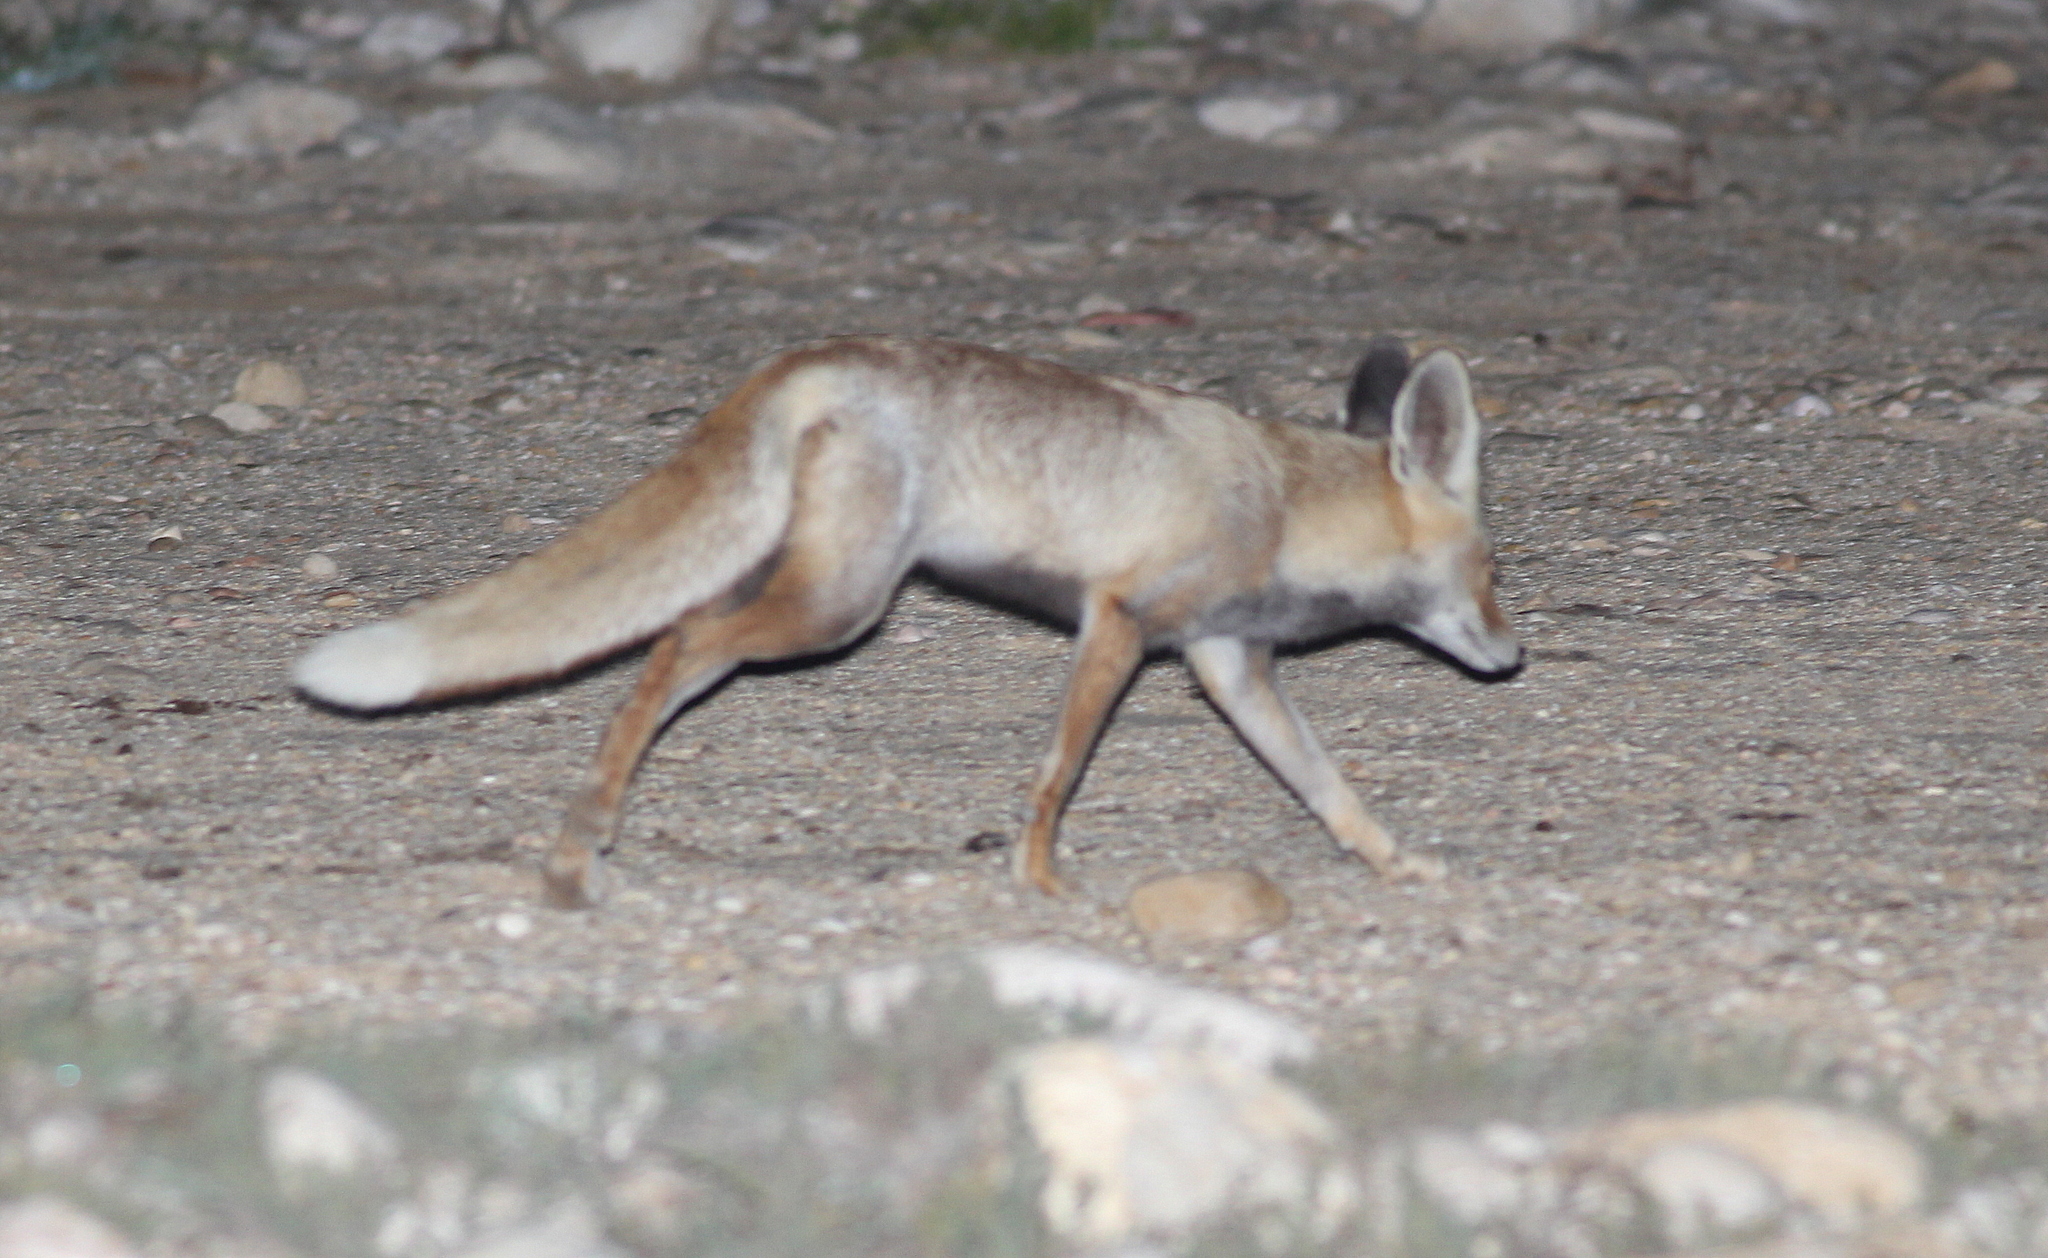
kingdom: Animalia
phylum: Chordata
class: Mammalia
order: Carnivora
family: Canidae
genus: Vulpes
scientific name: Vulpes vulpes
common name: Red fox
